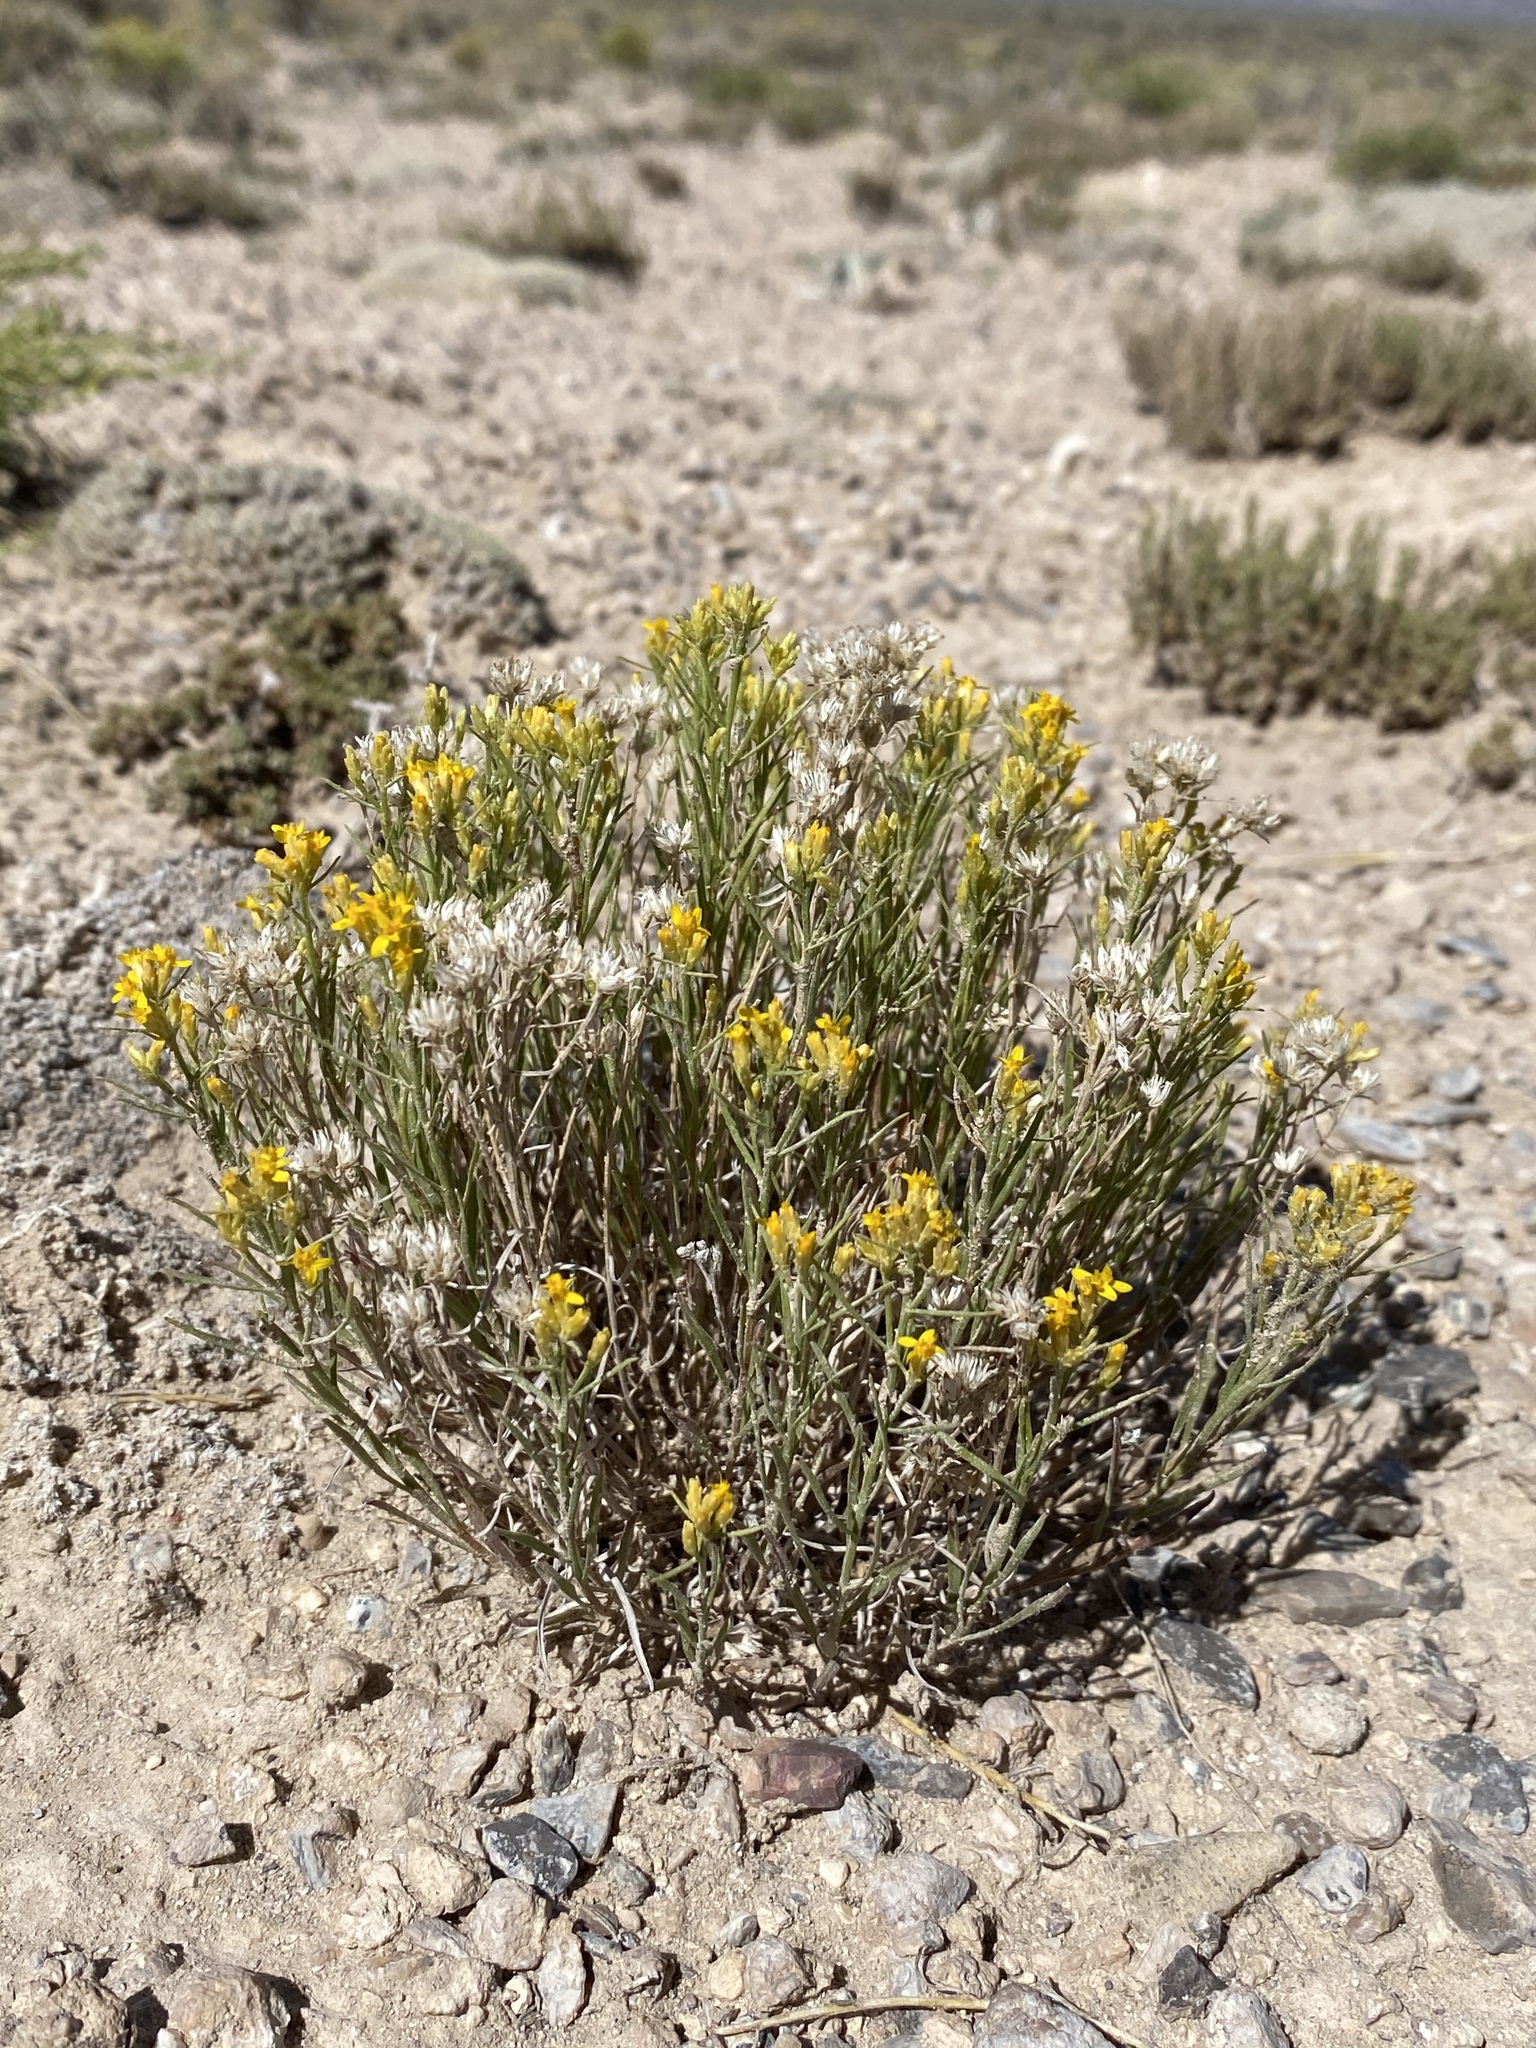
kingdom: Plantae
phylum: Tracheophyta
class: Magnoliopsida
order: Asterales
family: Asteraceae
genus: Gutierrezia
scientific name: Gutierrezia sarothrae
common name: Broom snakeweed
